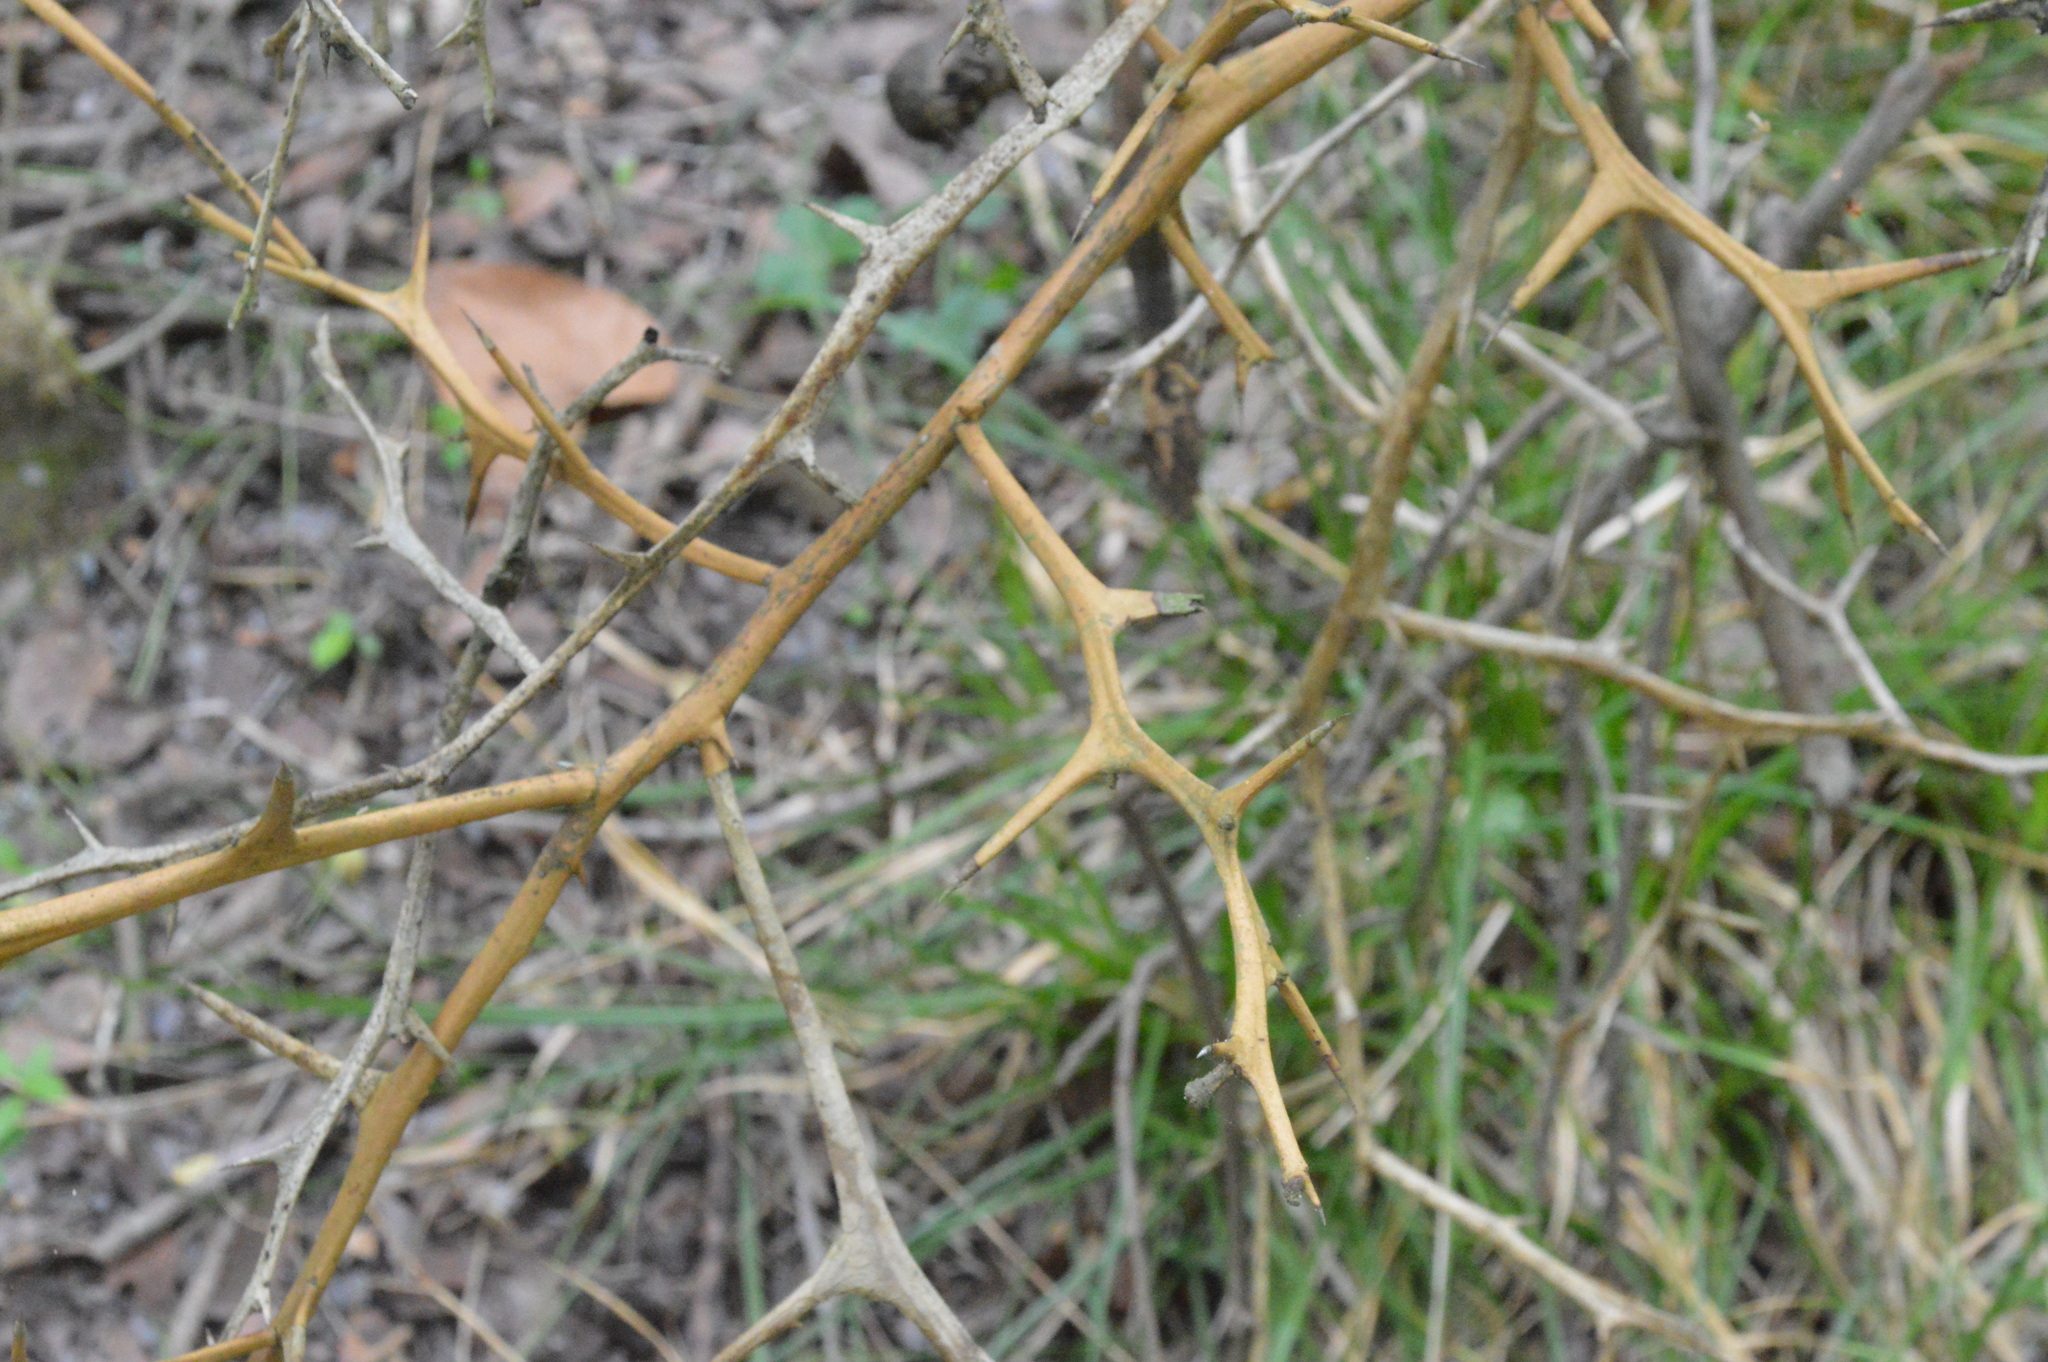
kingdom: Plantae
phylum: Tracheophyta
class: Magnoliopsida
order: Sapindales
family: Rutaceae
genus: Citrus
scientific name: Citrus trifoliata
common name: Japanese bitter-orange
